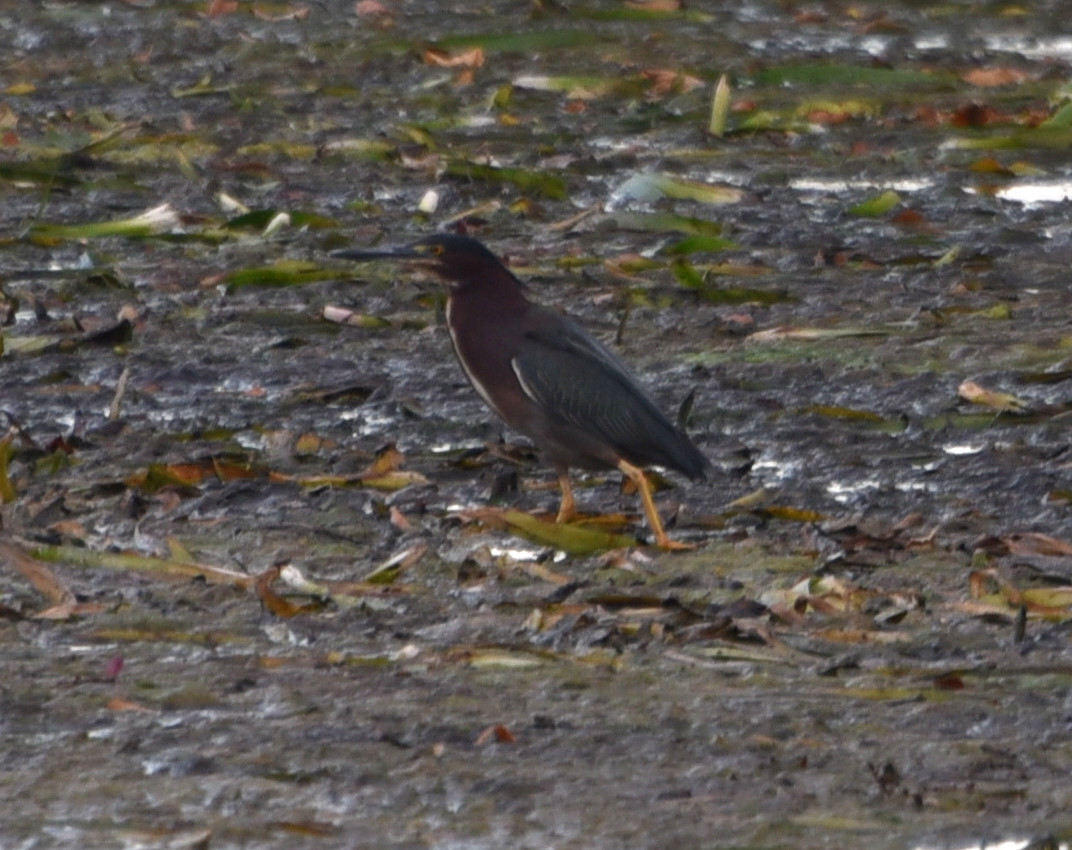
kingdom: Animalia
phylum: Chordata
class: Aves
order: Pelecaniformes
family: Ardeidae
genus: Butorides
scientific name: Butorides virescens
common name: Green heron
